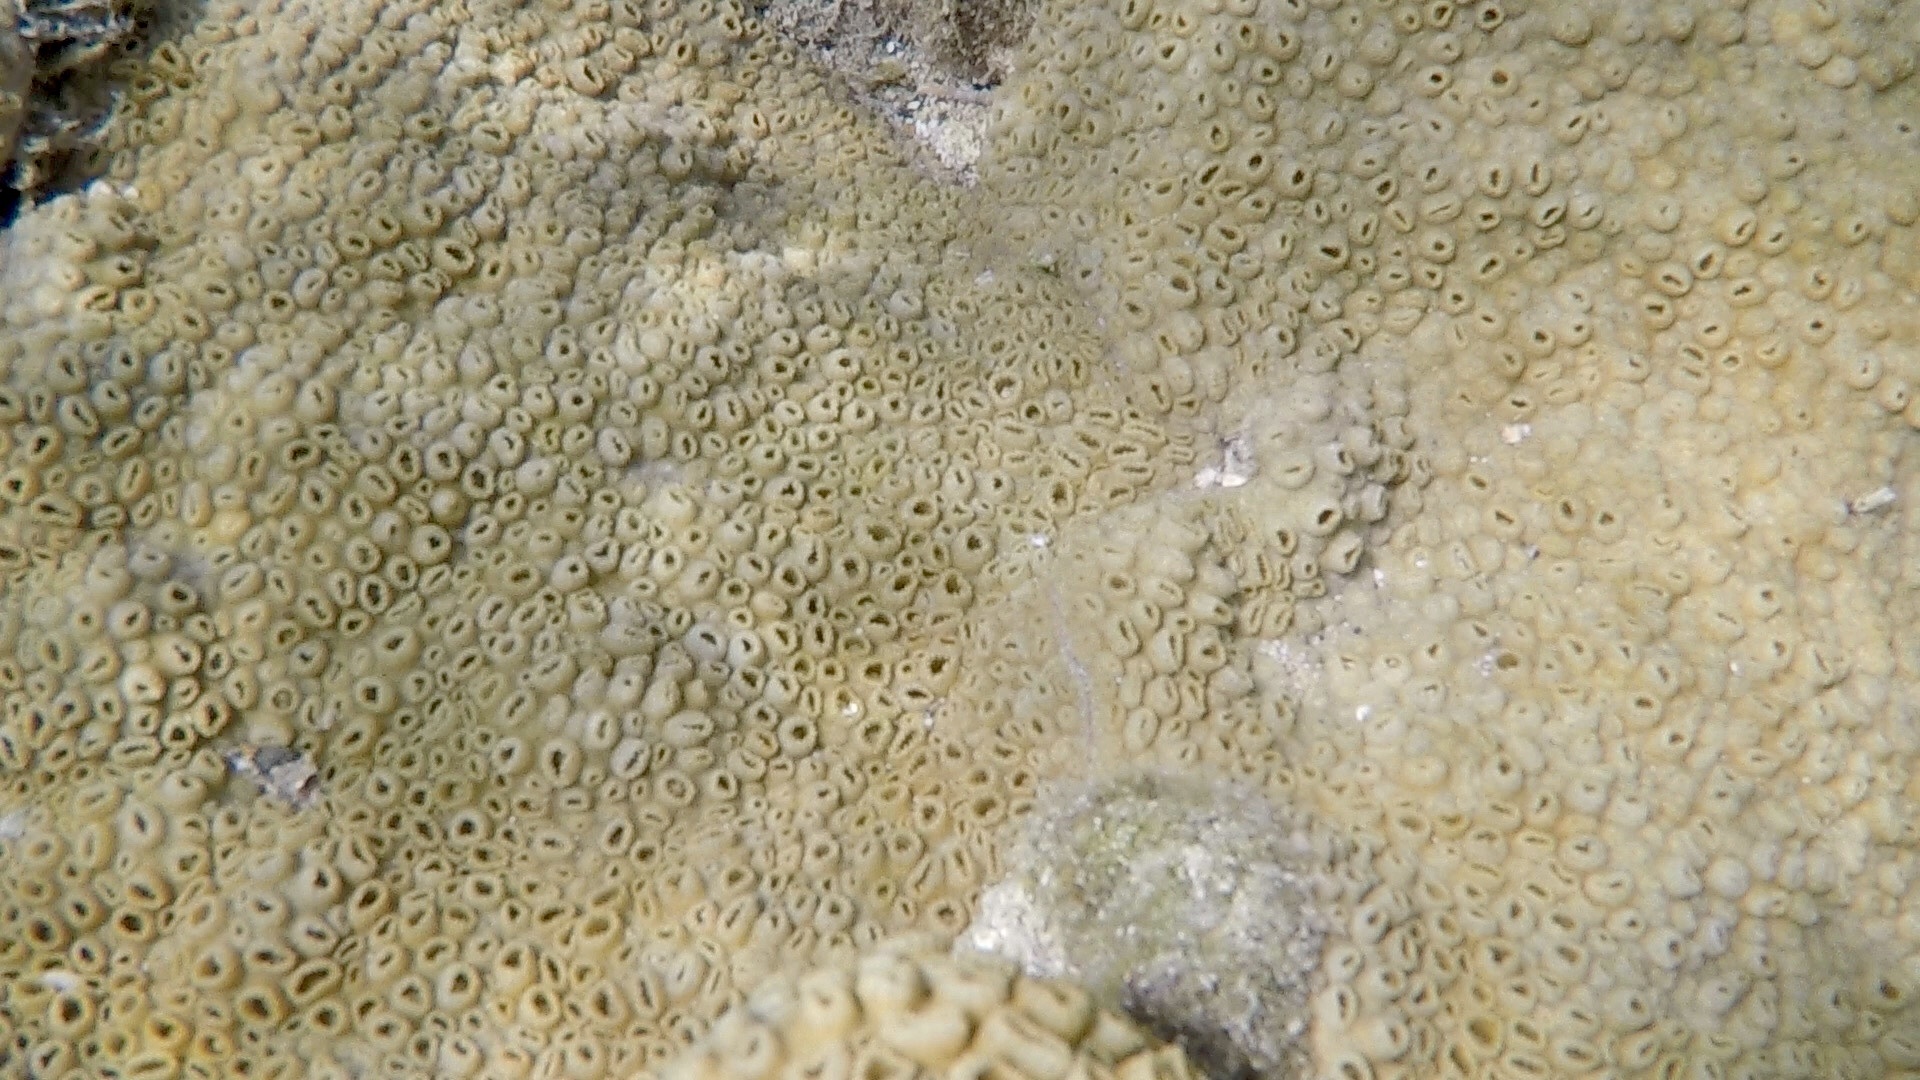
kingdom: Animalia
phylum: Cnidaria
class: Anthozoa
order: Zoantharia
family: Sphenopidae
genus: Palythoa
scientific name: Palythoa caribaeorum
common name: Encrusting colonial anemone
